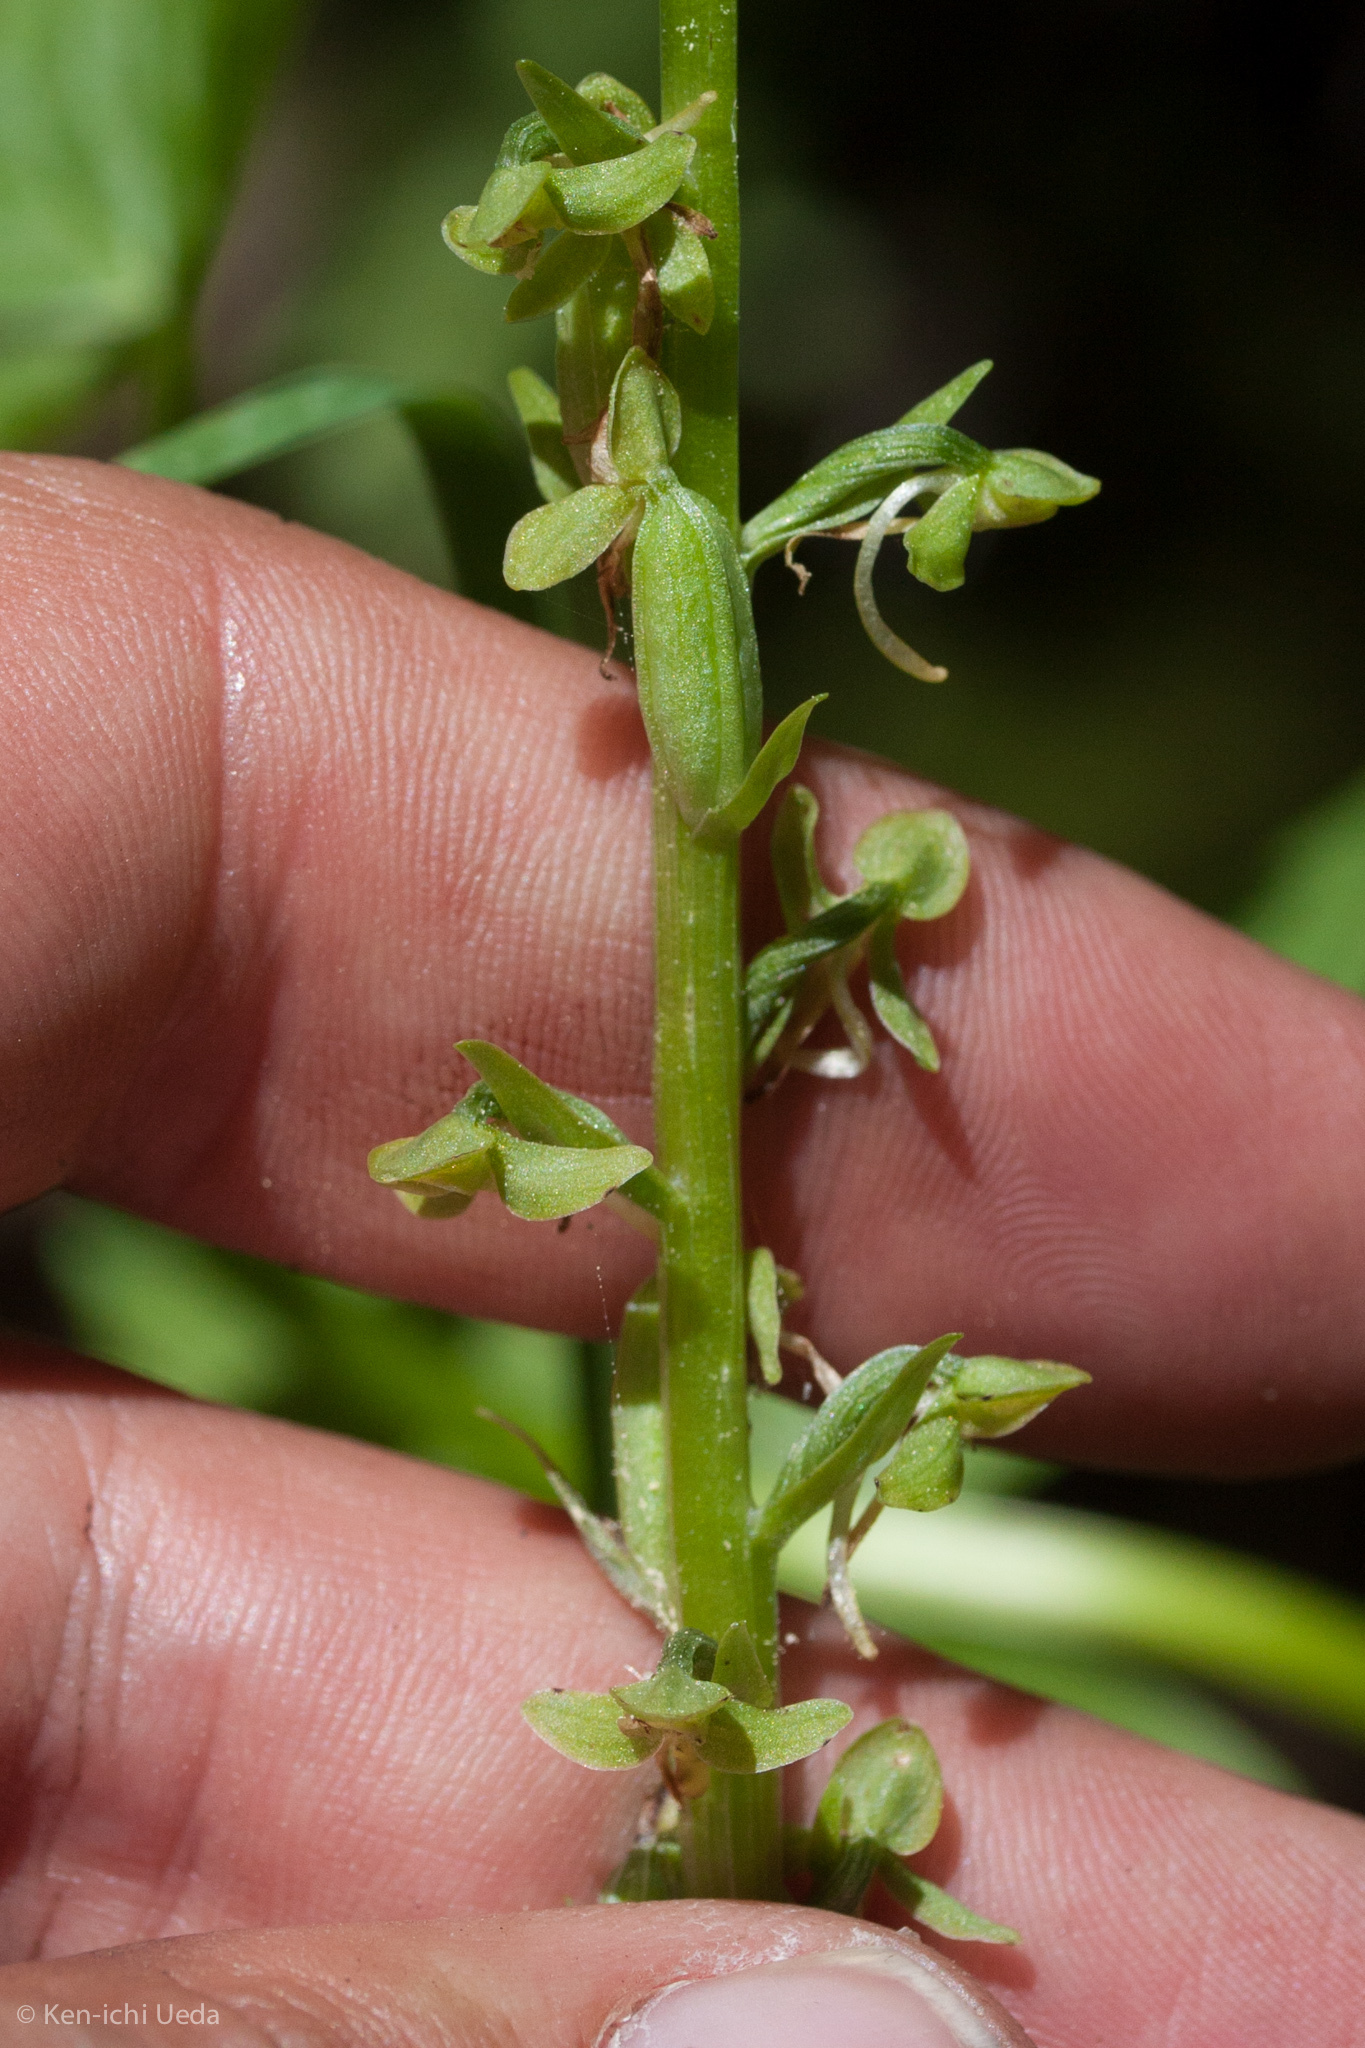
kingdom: Plantae
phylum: Tracheophyta
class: Liliopsida
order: Asparagales
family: Orchidaceae
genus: Platanthera
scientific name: Platanthera sparsiflora
